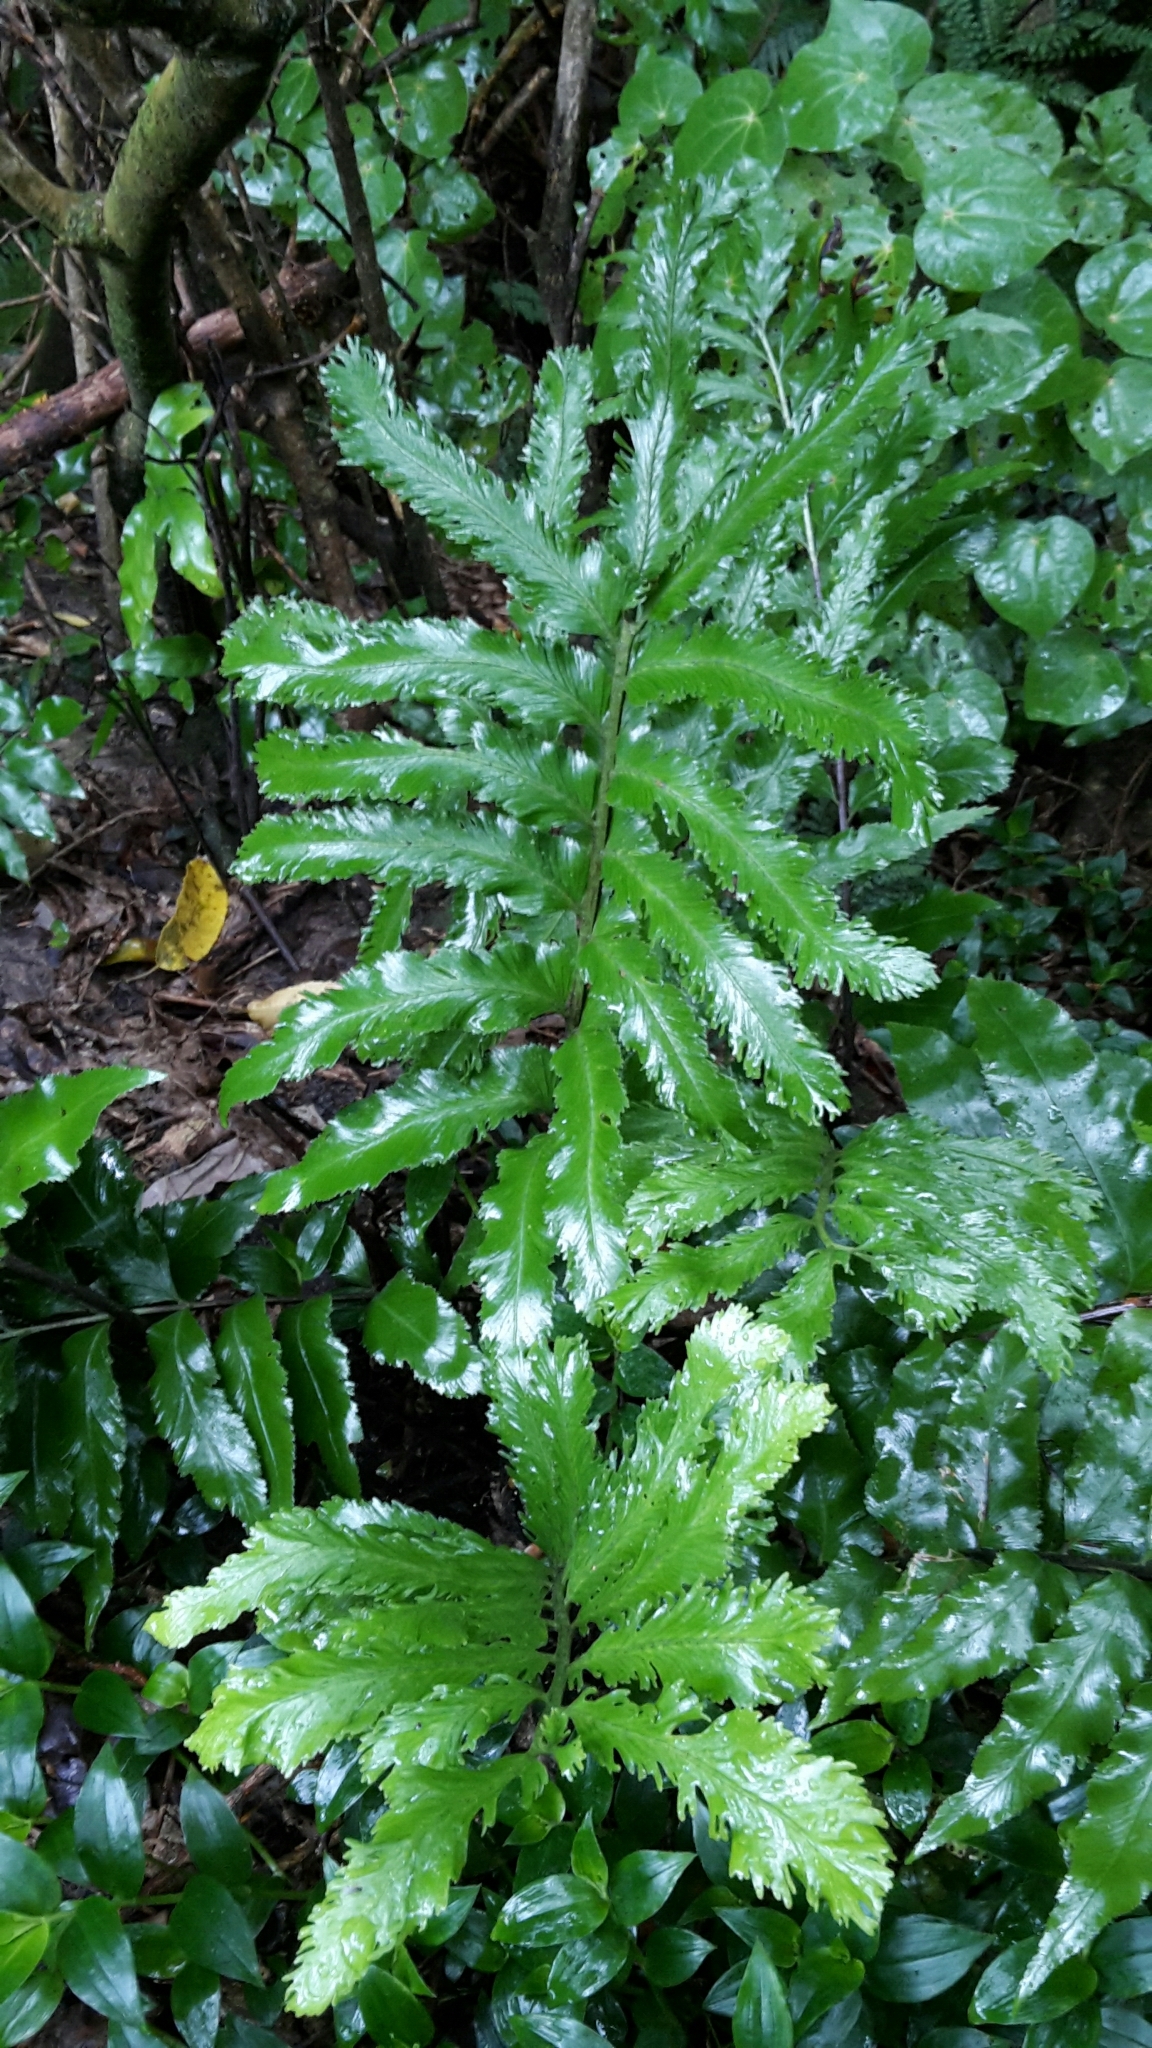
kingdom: Plantae
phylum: Tracheophyta
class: Polypodiopsida
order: Polypodiales
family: Aspleniaceae
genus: Asplenium
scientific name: Asplenium oblongifolium
